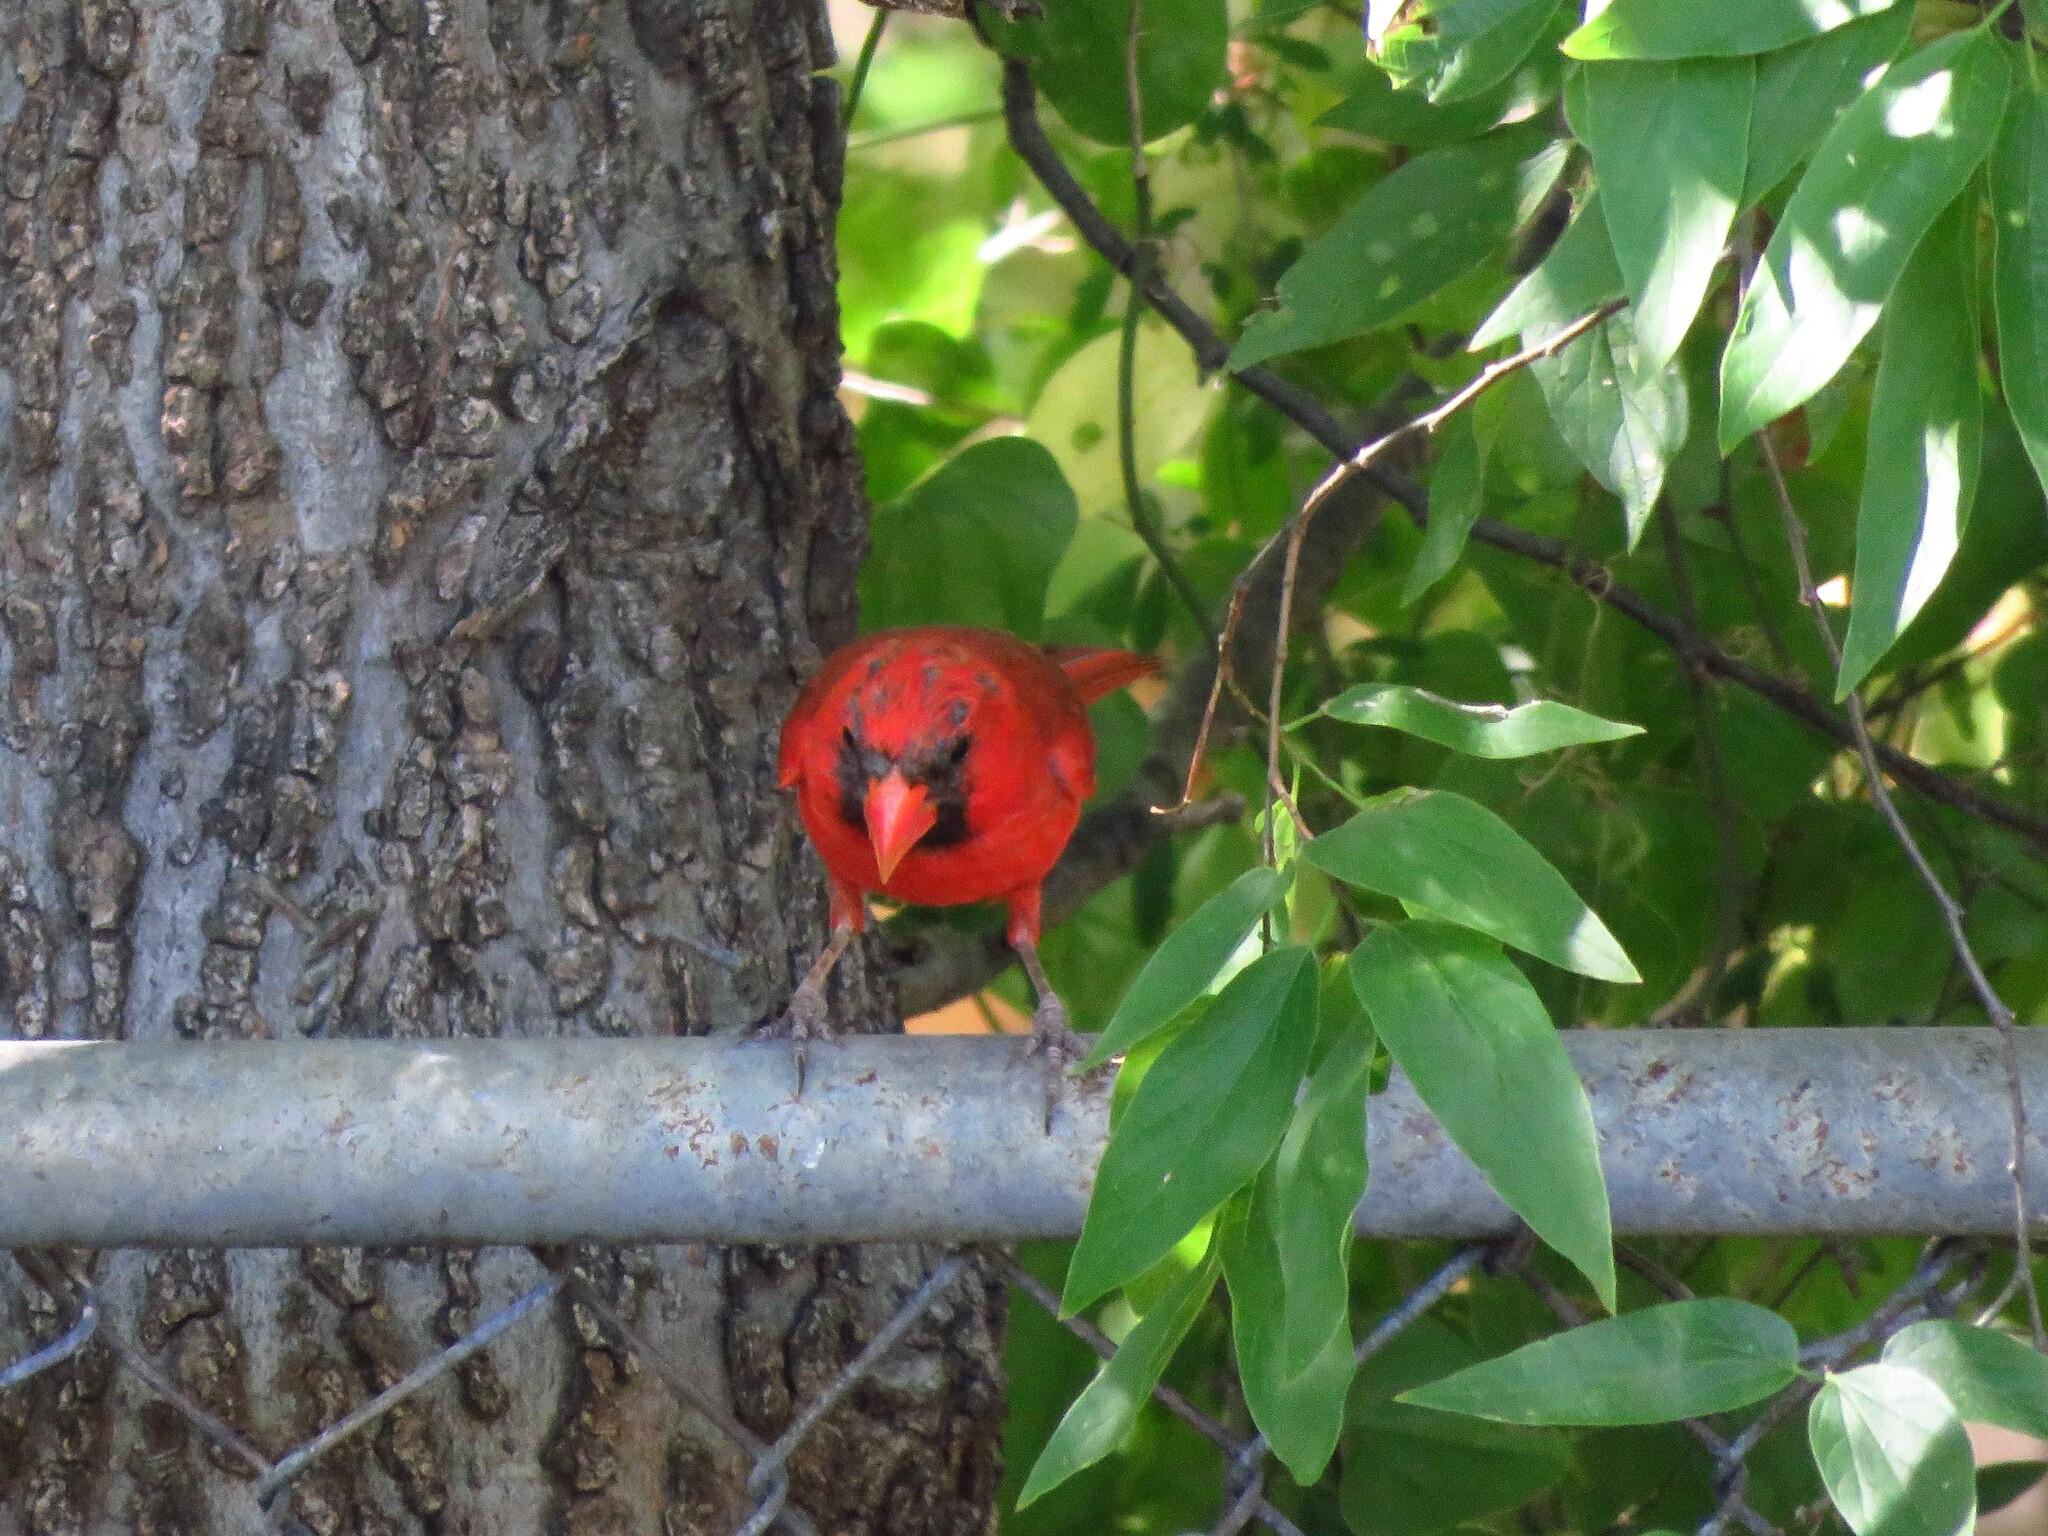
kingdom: Animalia
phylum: Chordata
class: Aves
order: Passeriformes
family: Cardinalidae
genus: Cardinalis
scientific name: Cardinalis cardinalis
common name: Northern cardinal
